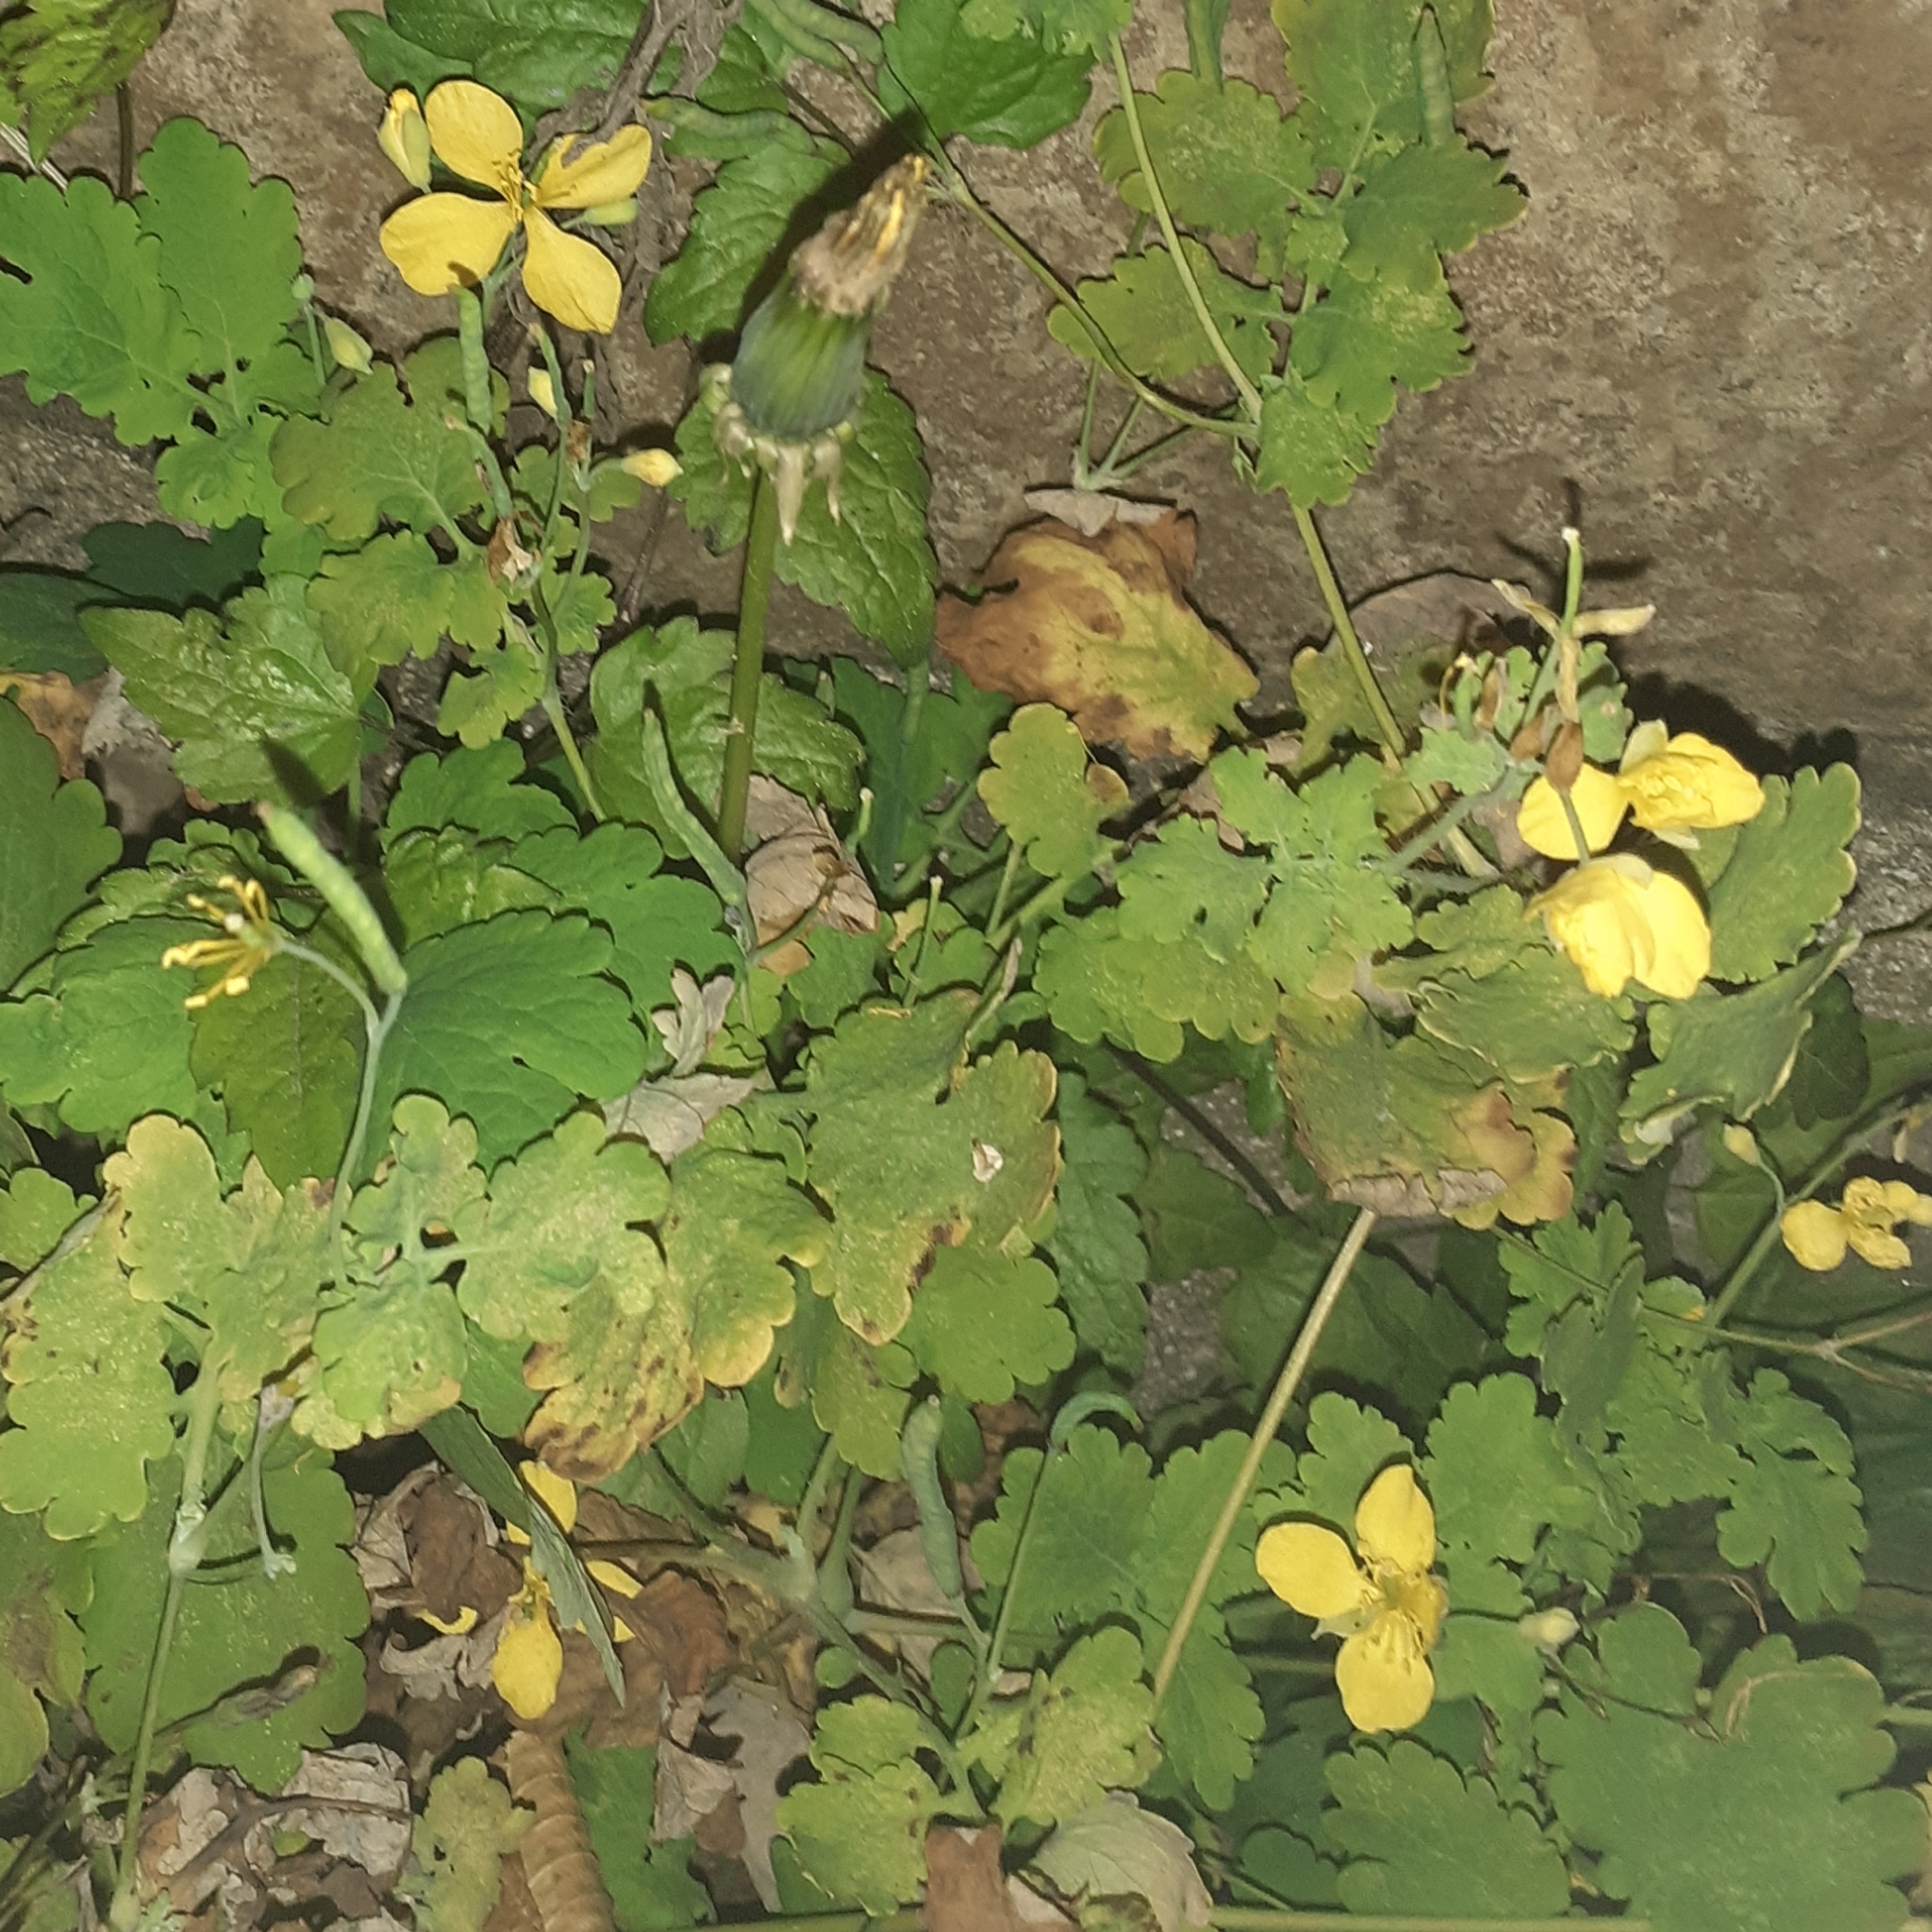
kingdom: Plantae
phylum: Tracheophyta
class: Magnoliopsida
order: Ranunculales
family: Papaveraceae
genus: Chelidonium
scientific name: Chelidonium majus
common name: Greater celandine
